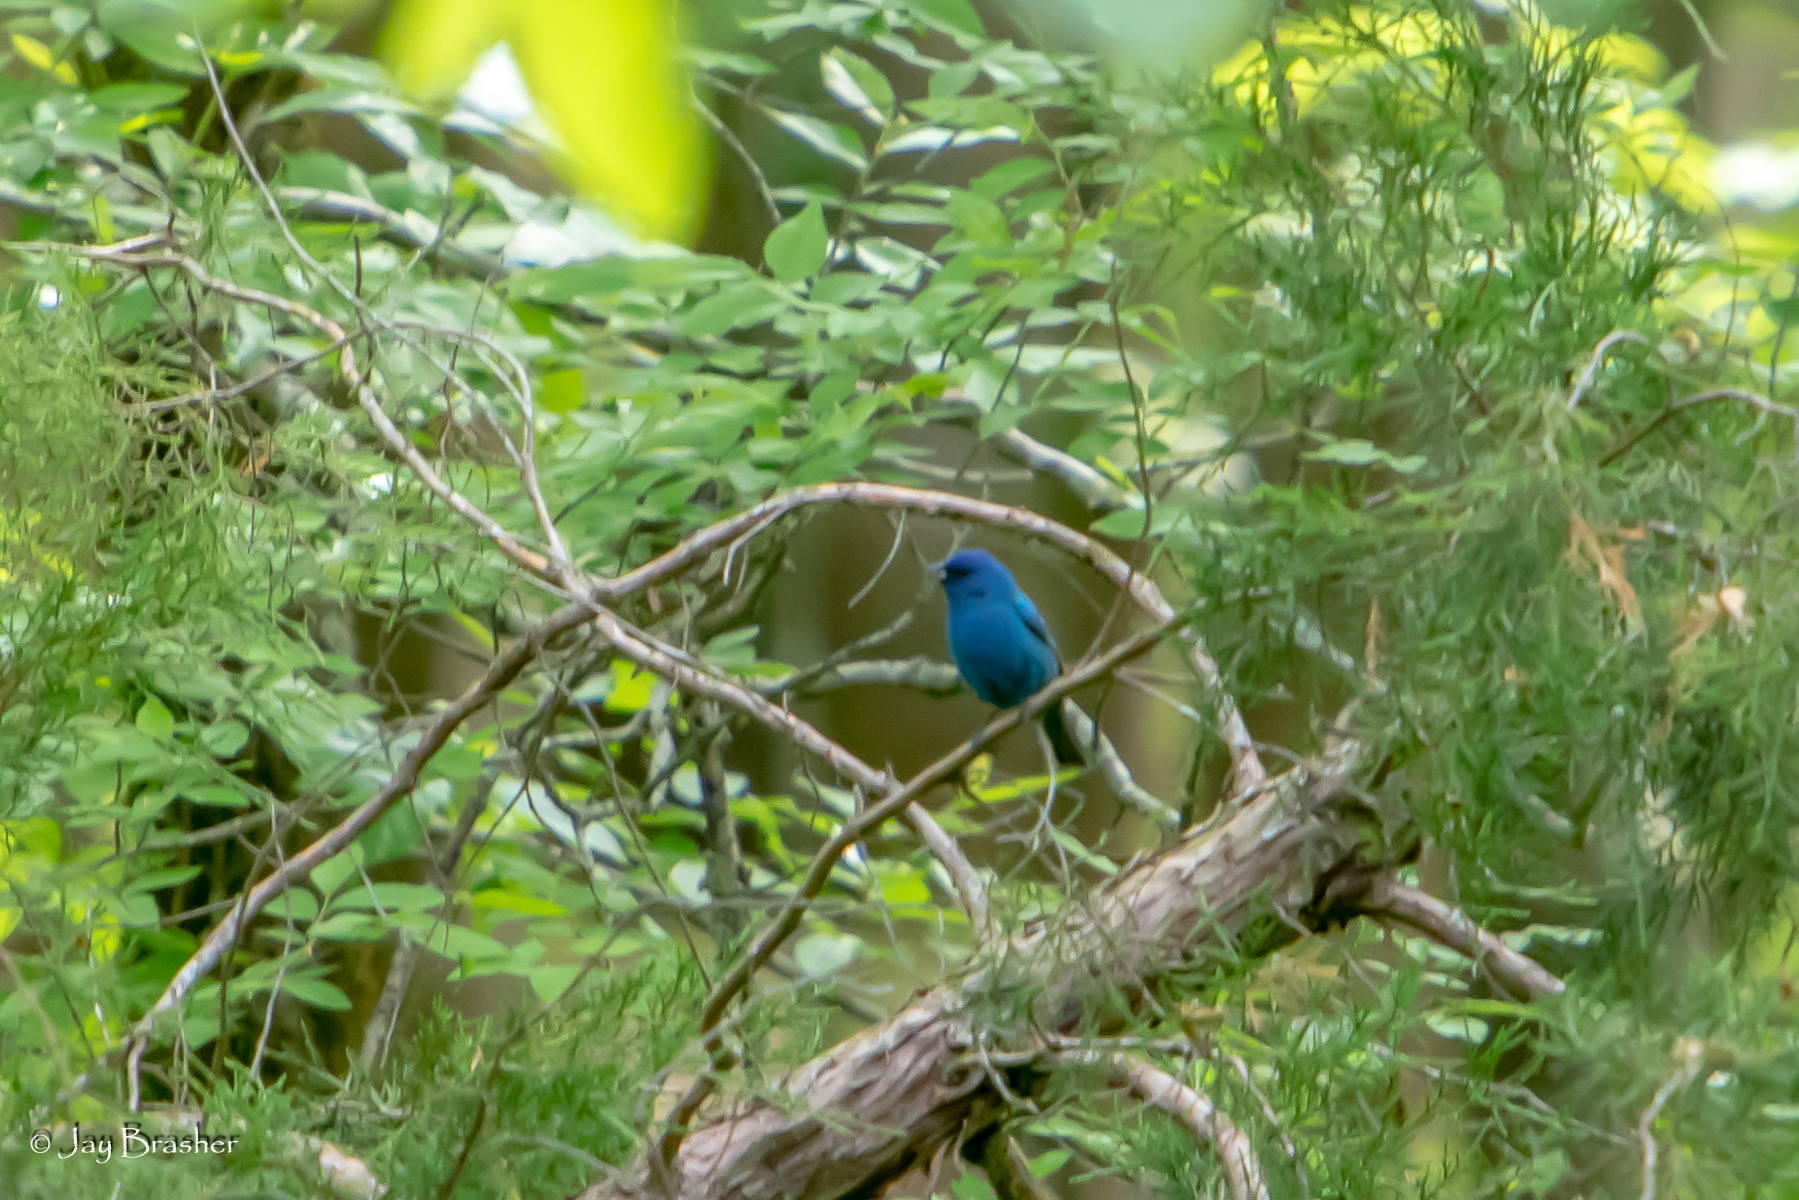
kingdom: Animalia
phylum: Chordata
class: Aves
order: Passeriformes
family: Cardinalidae
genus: Passerina
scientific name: Passerina cyanea
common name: Indigo bunting
